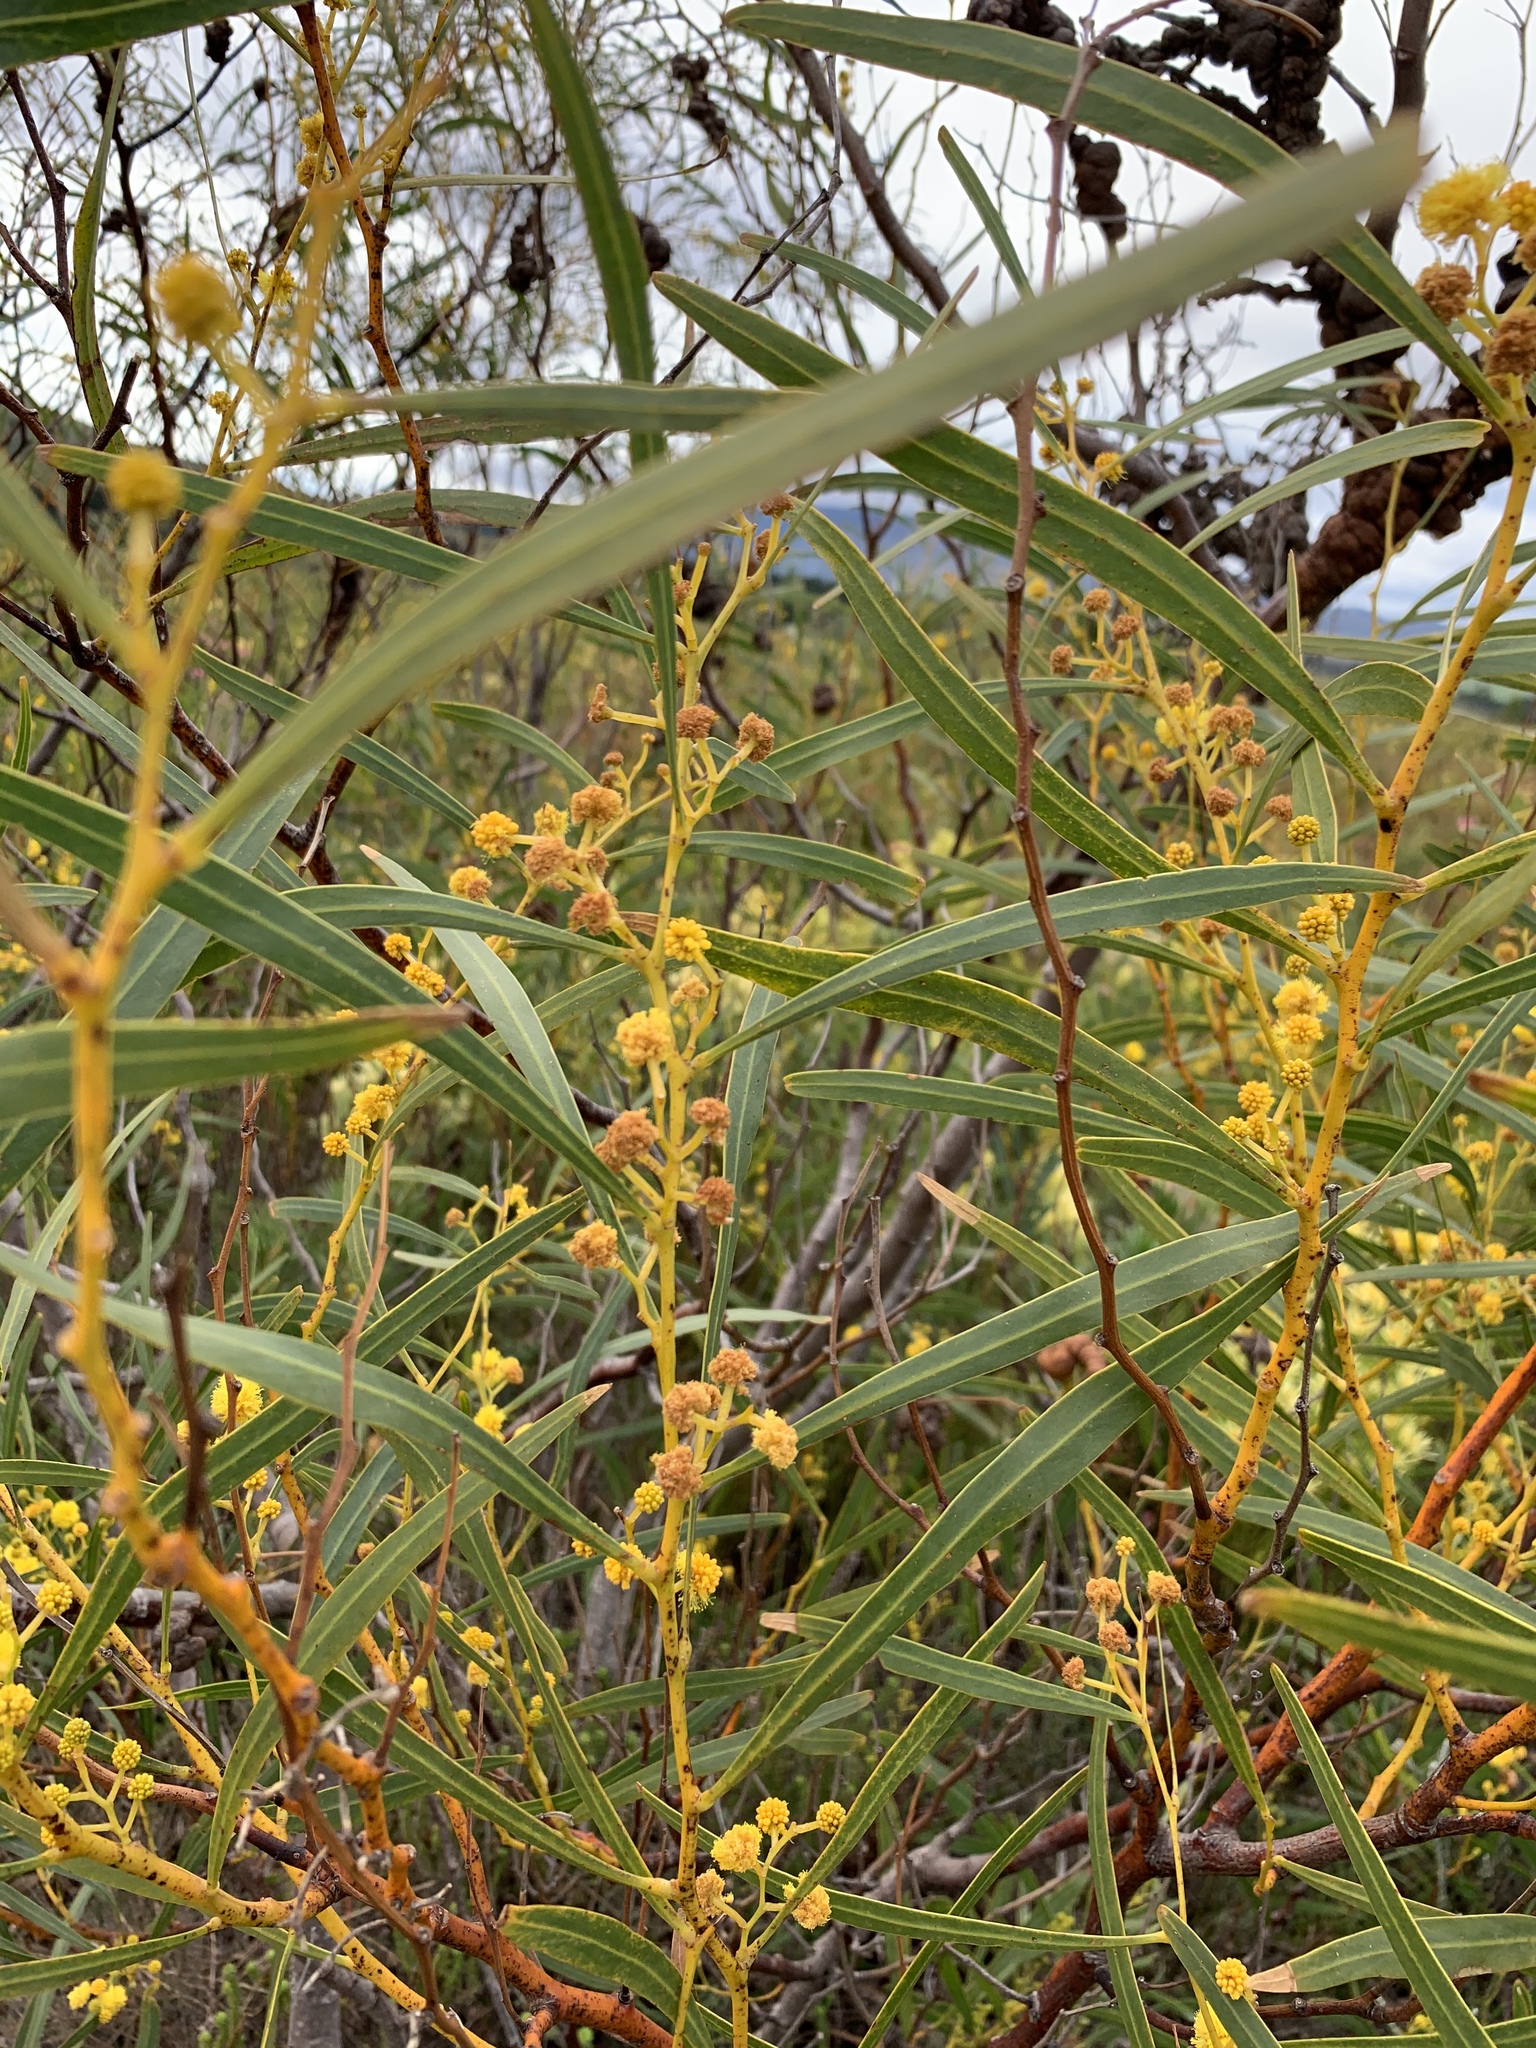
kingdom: Plantae
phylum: Tracheophyta
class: Magnoliopsida
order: Fabales
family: Fabaceae
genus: Acacia
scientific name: Acacia saligna
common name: Orange wattle
